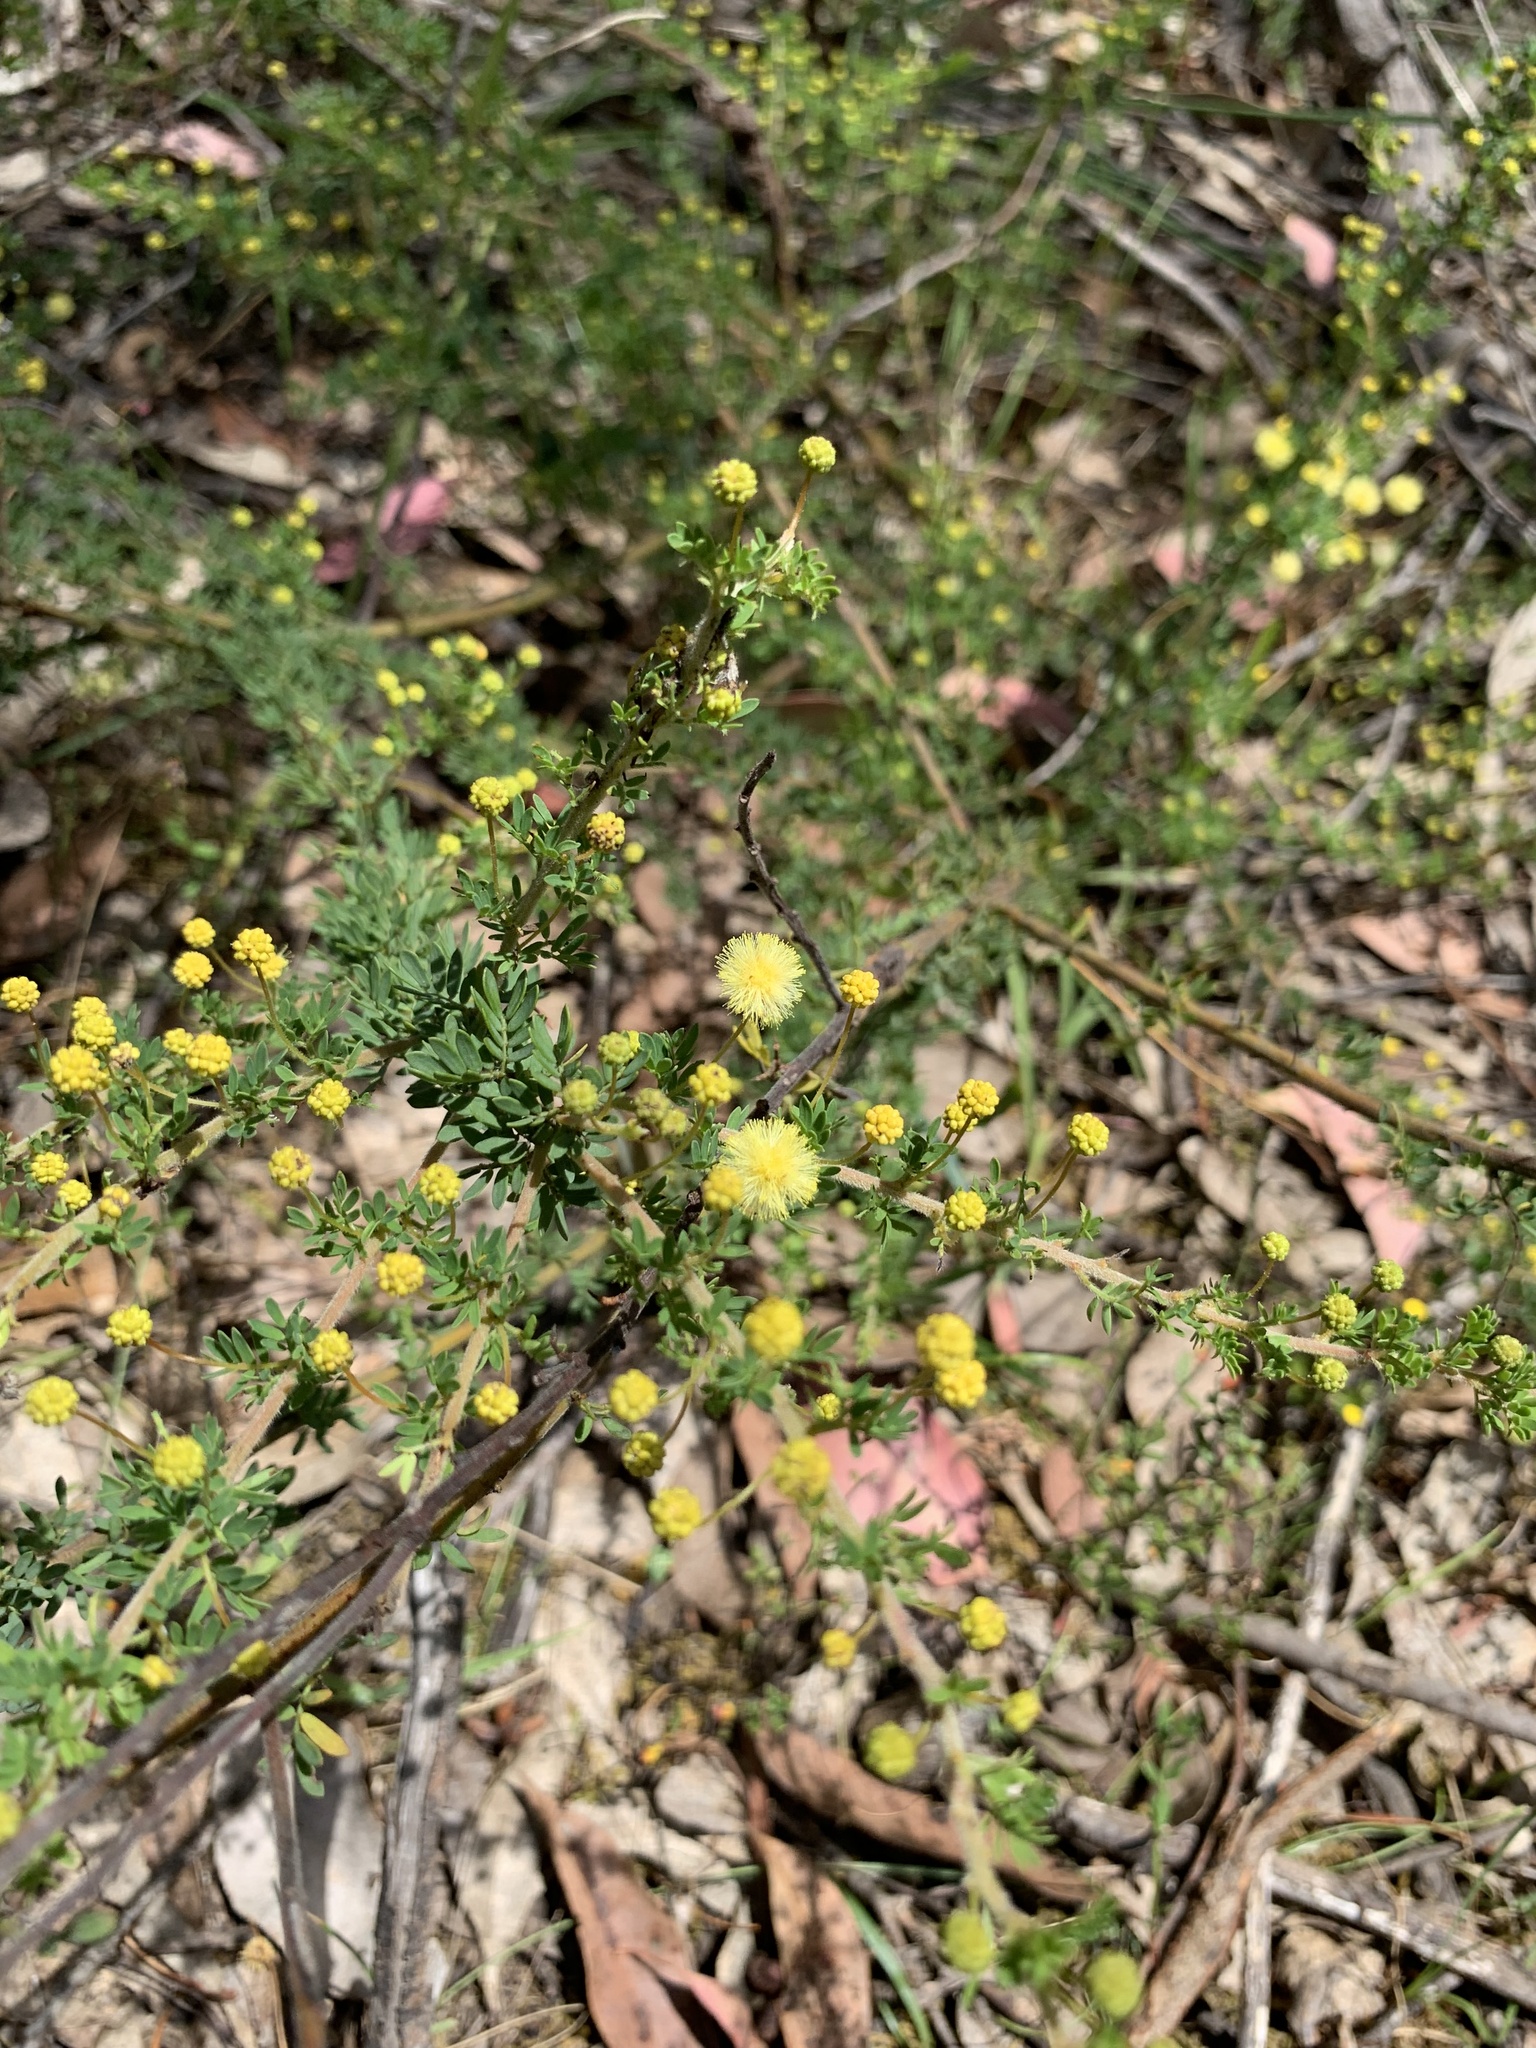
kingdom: Plantae
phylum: Tracheophyta
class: Magnoliopsida
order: Fabales
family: Fabaceae
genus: Acacia
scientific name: Acacia mitchellii
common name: Mitchell's wattle
